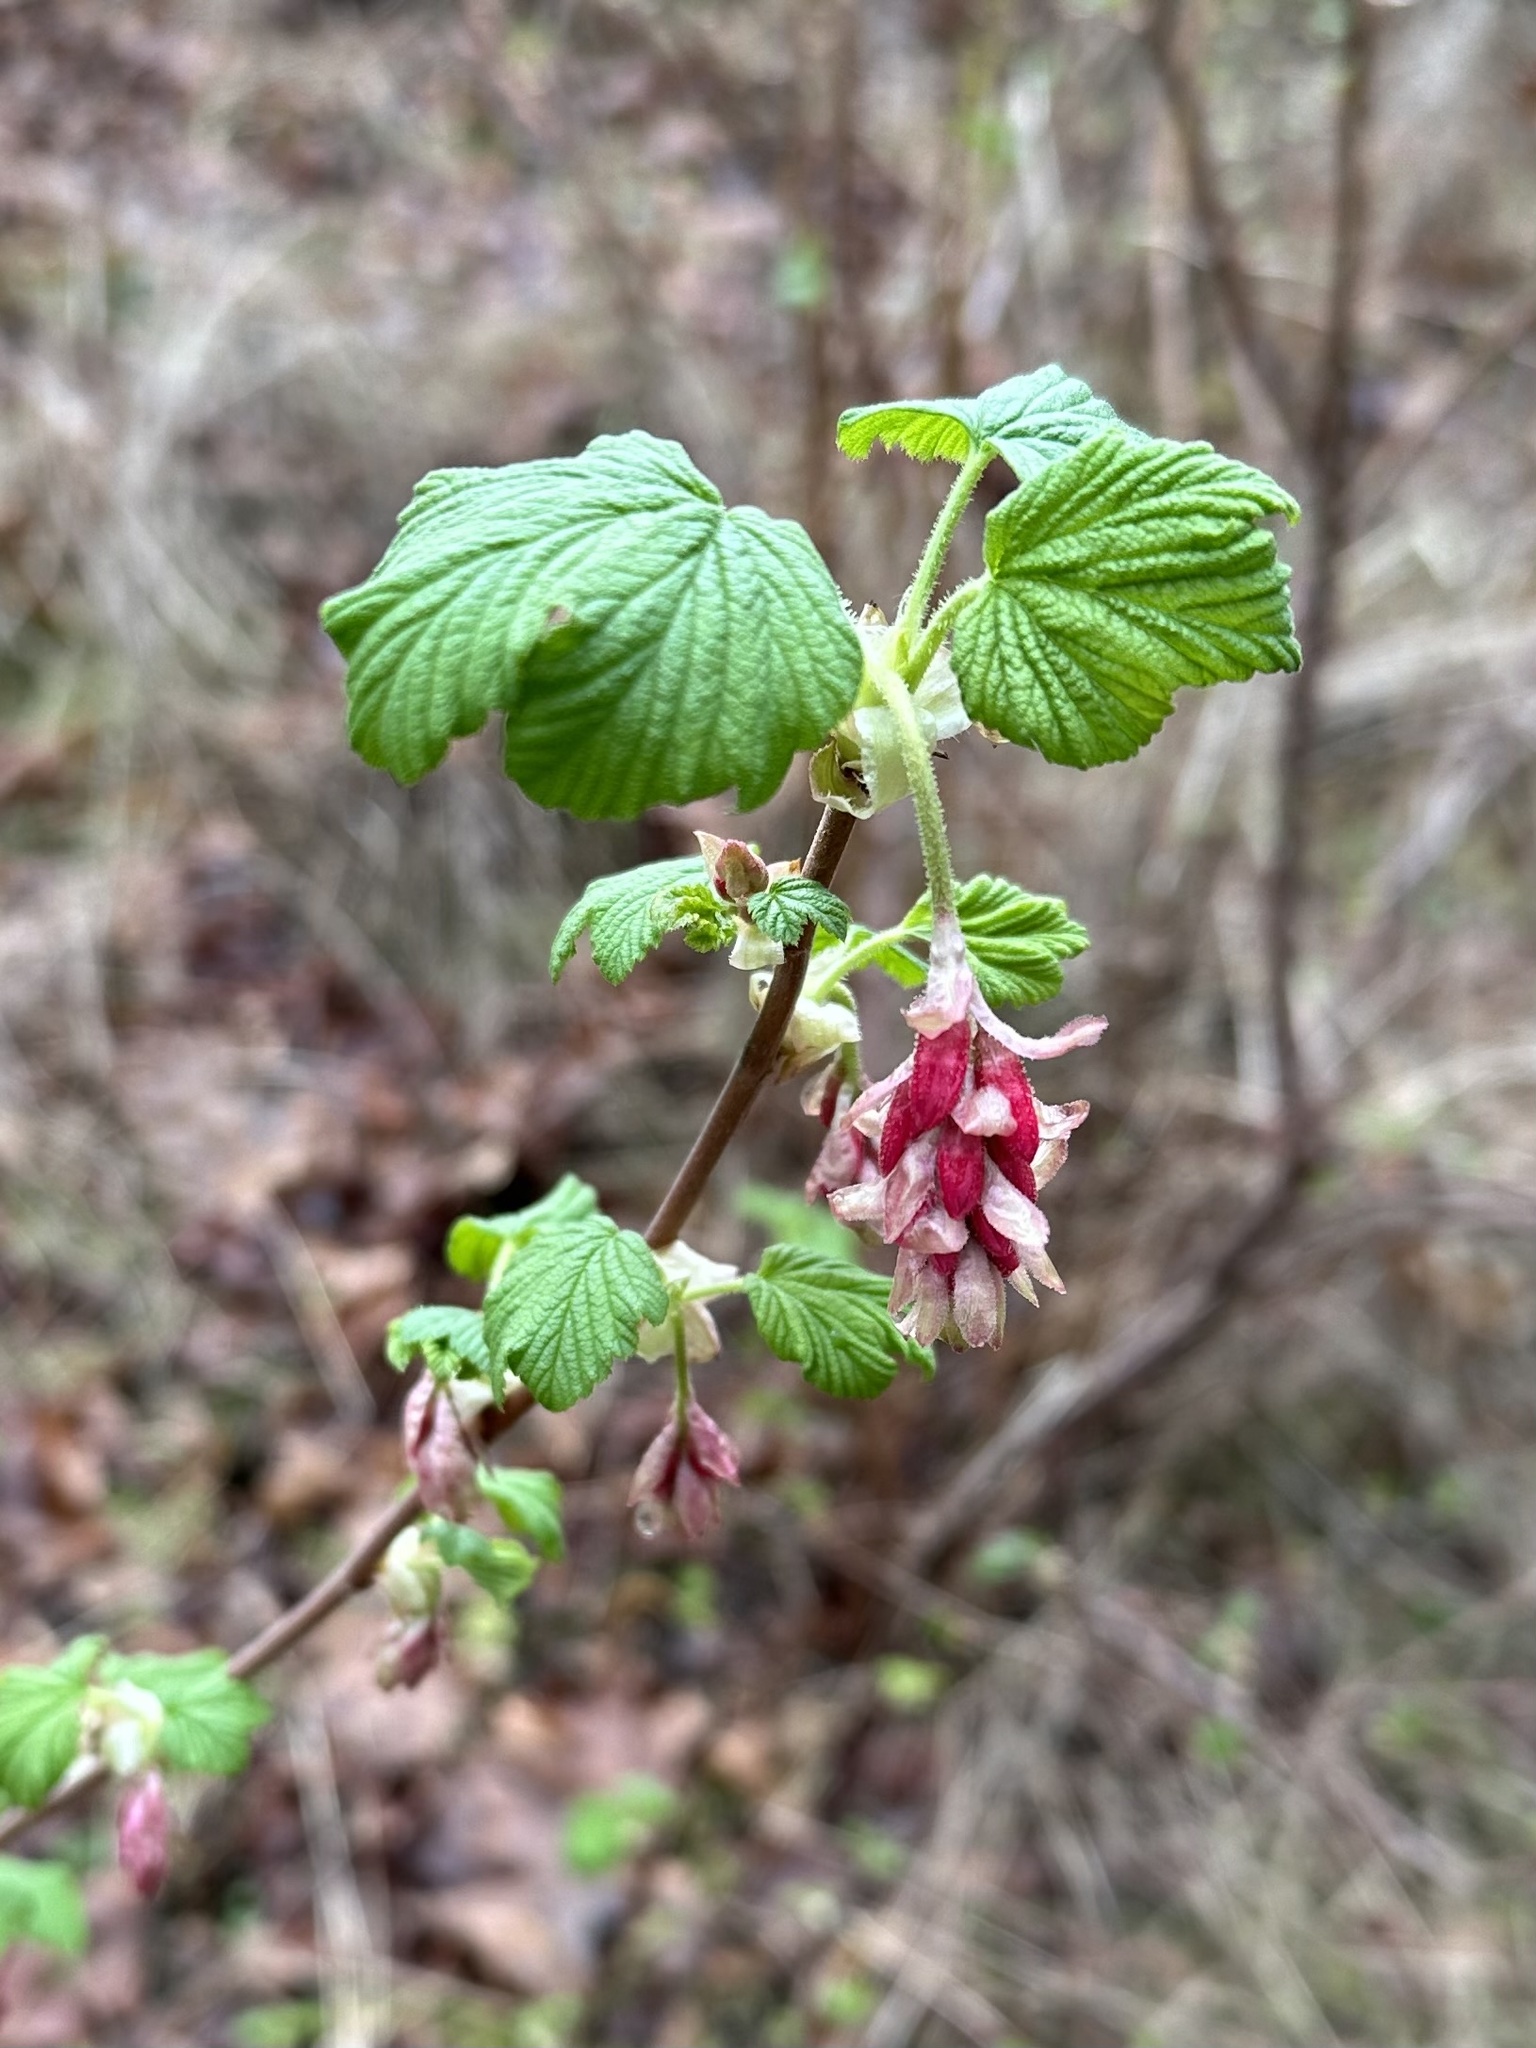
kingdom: Plantae
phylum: Tracheophyta
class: Magnoliopsida
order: Saxifragales
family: Grossulariaceae
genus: Ribes
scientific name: Ribes sanguineum
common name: Flowering currant
